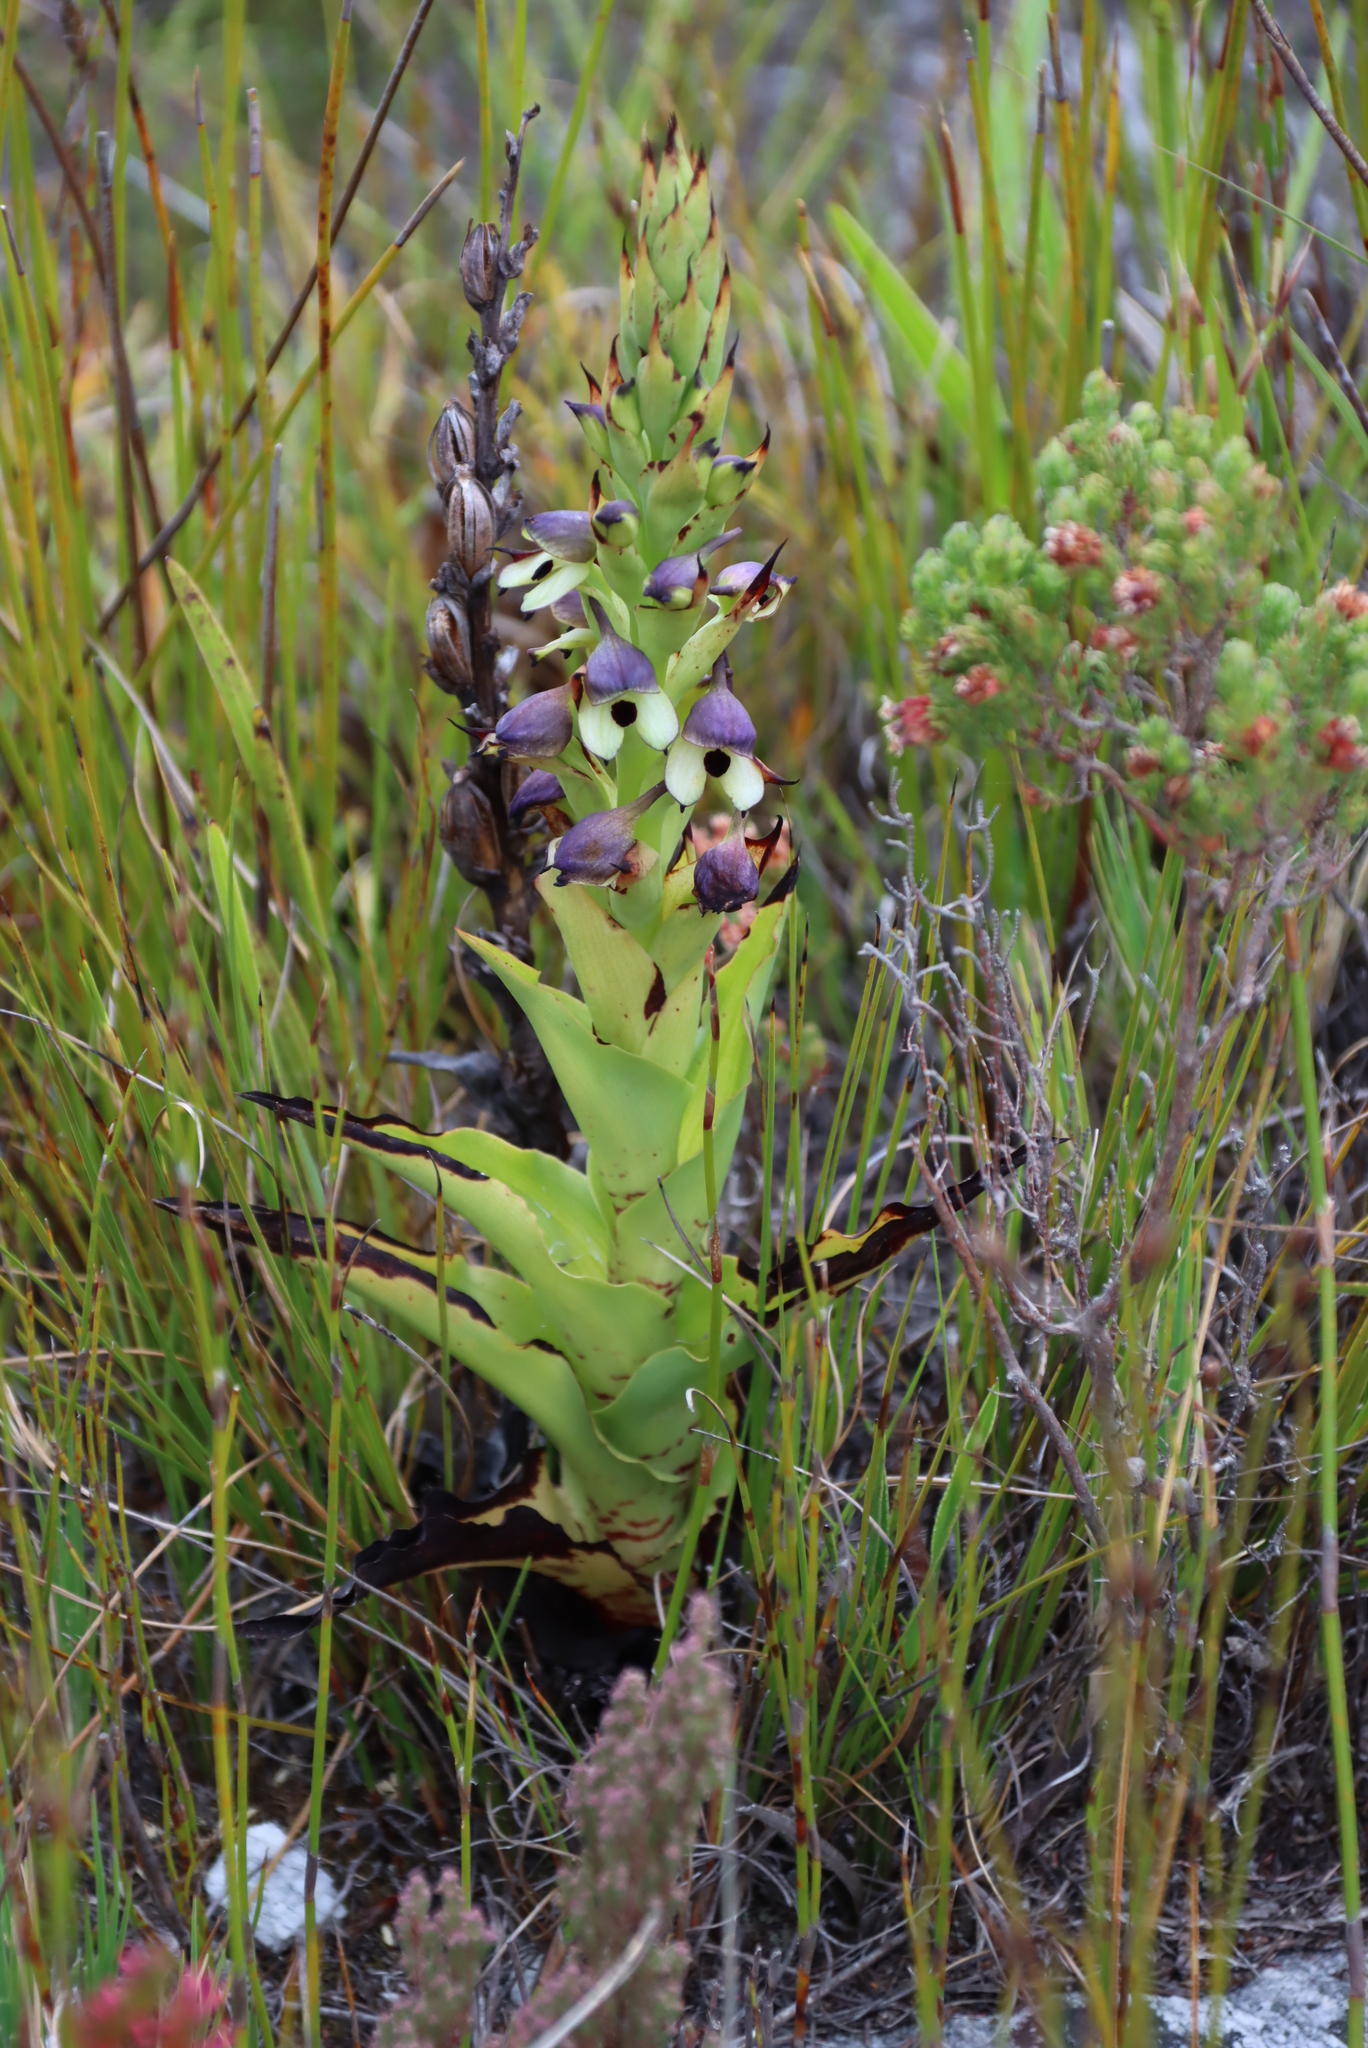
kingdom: Plantae
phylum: Tracheophyta
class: Liliopsida
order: Asparagales
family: Orchidaceae
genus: Disa
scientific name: Disa cornuta
